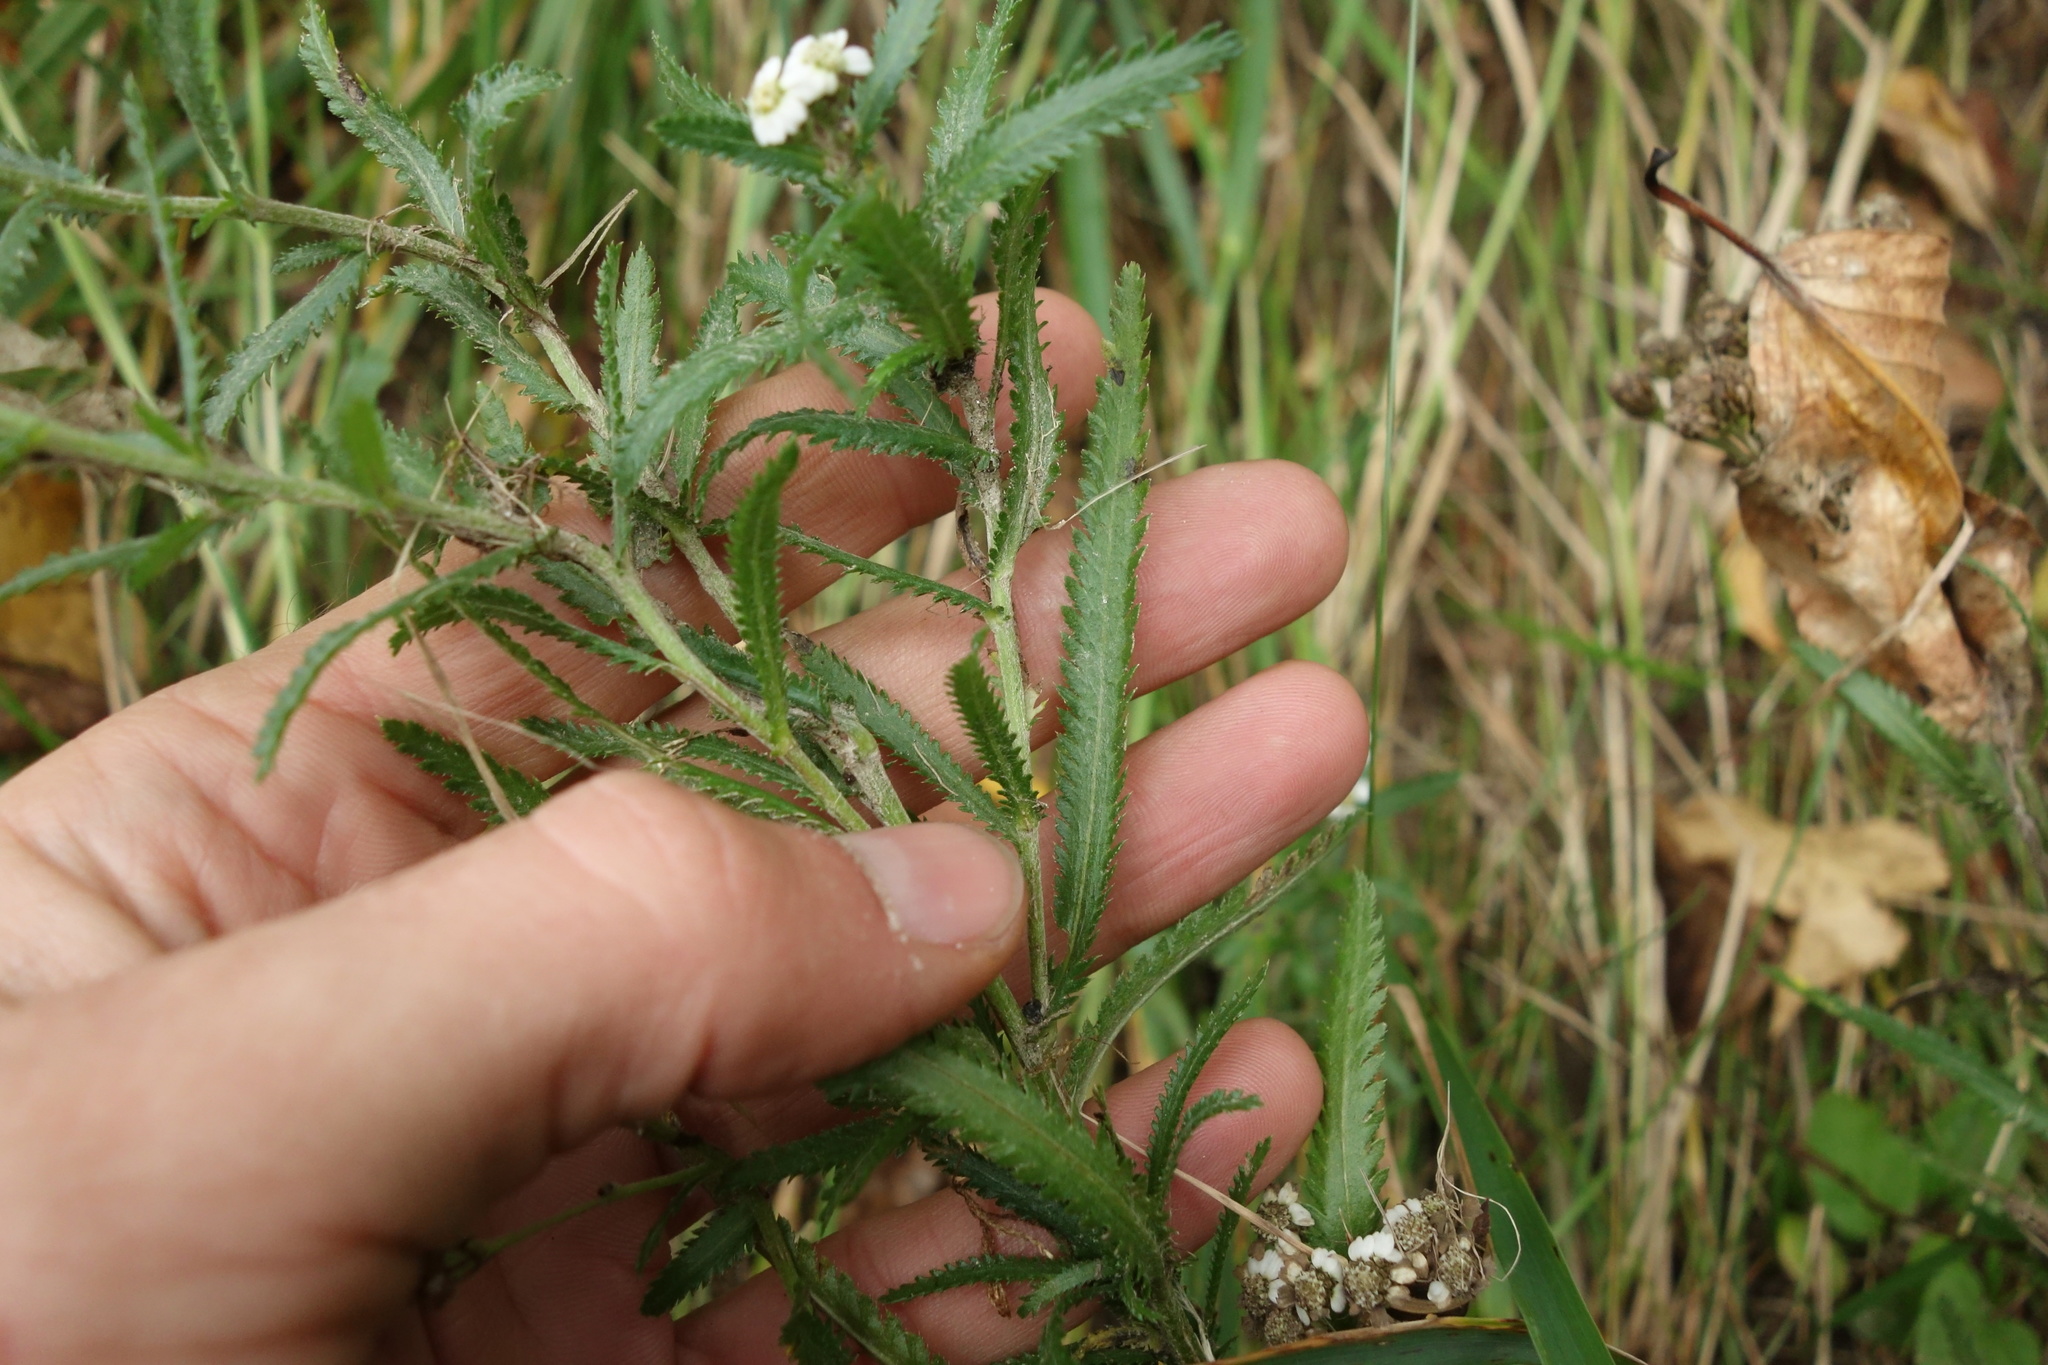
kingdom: Plantae
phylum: Tracheophyta
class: Magnoliopsida
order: Asterales
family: Asteraceae
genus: Achillea
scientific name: Achillea alpina
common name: Siberian yarrow
